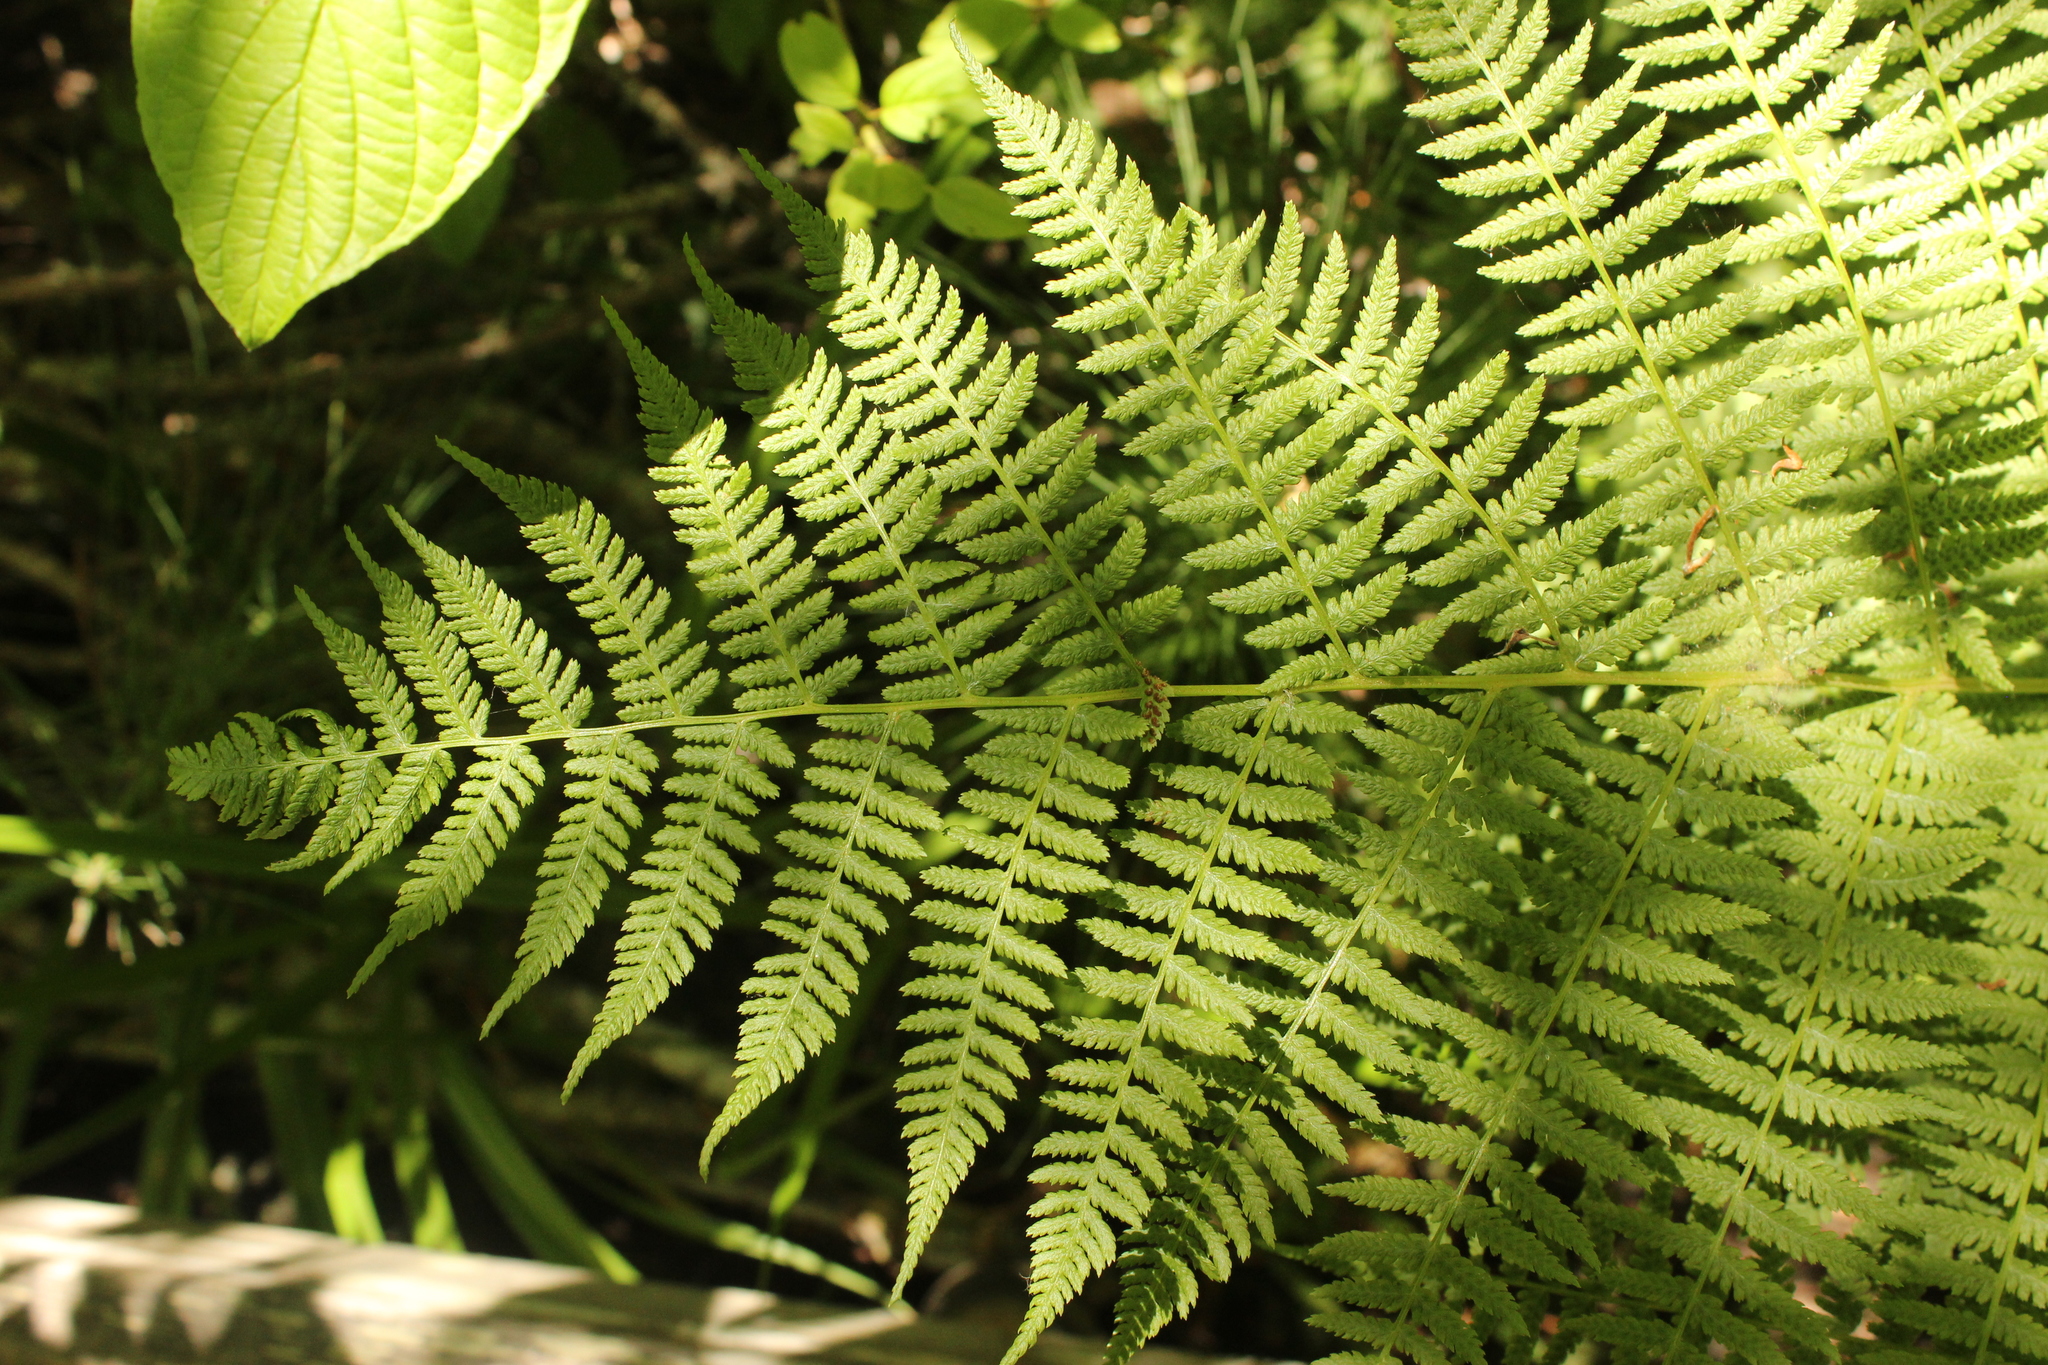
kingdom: Plantae
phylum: Tracheophyta
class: Polypodiopsida
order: Polypodiales
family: Athyriaceae
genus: Athyrium
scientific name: Athyrium filix-femina
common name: Lady fern
